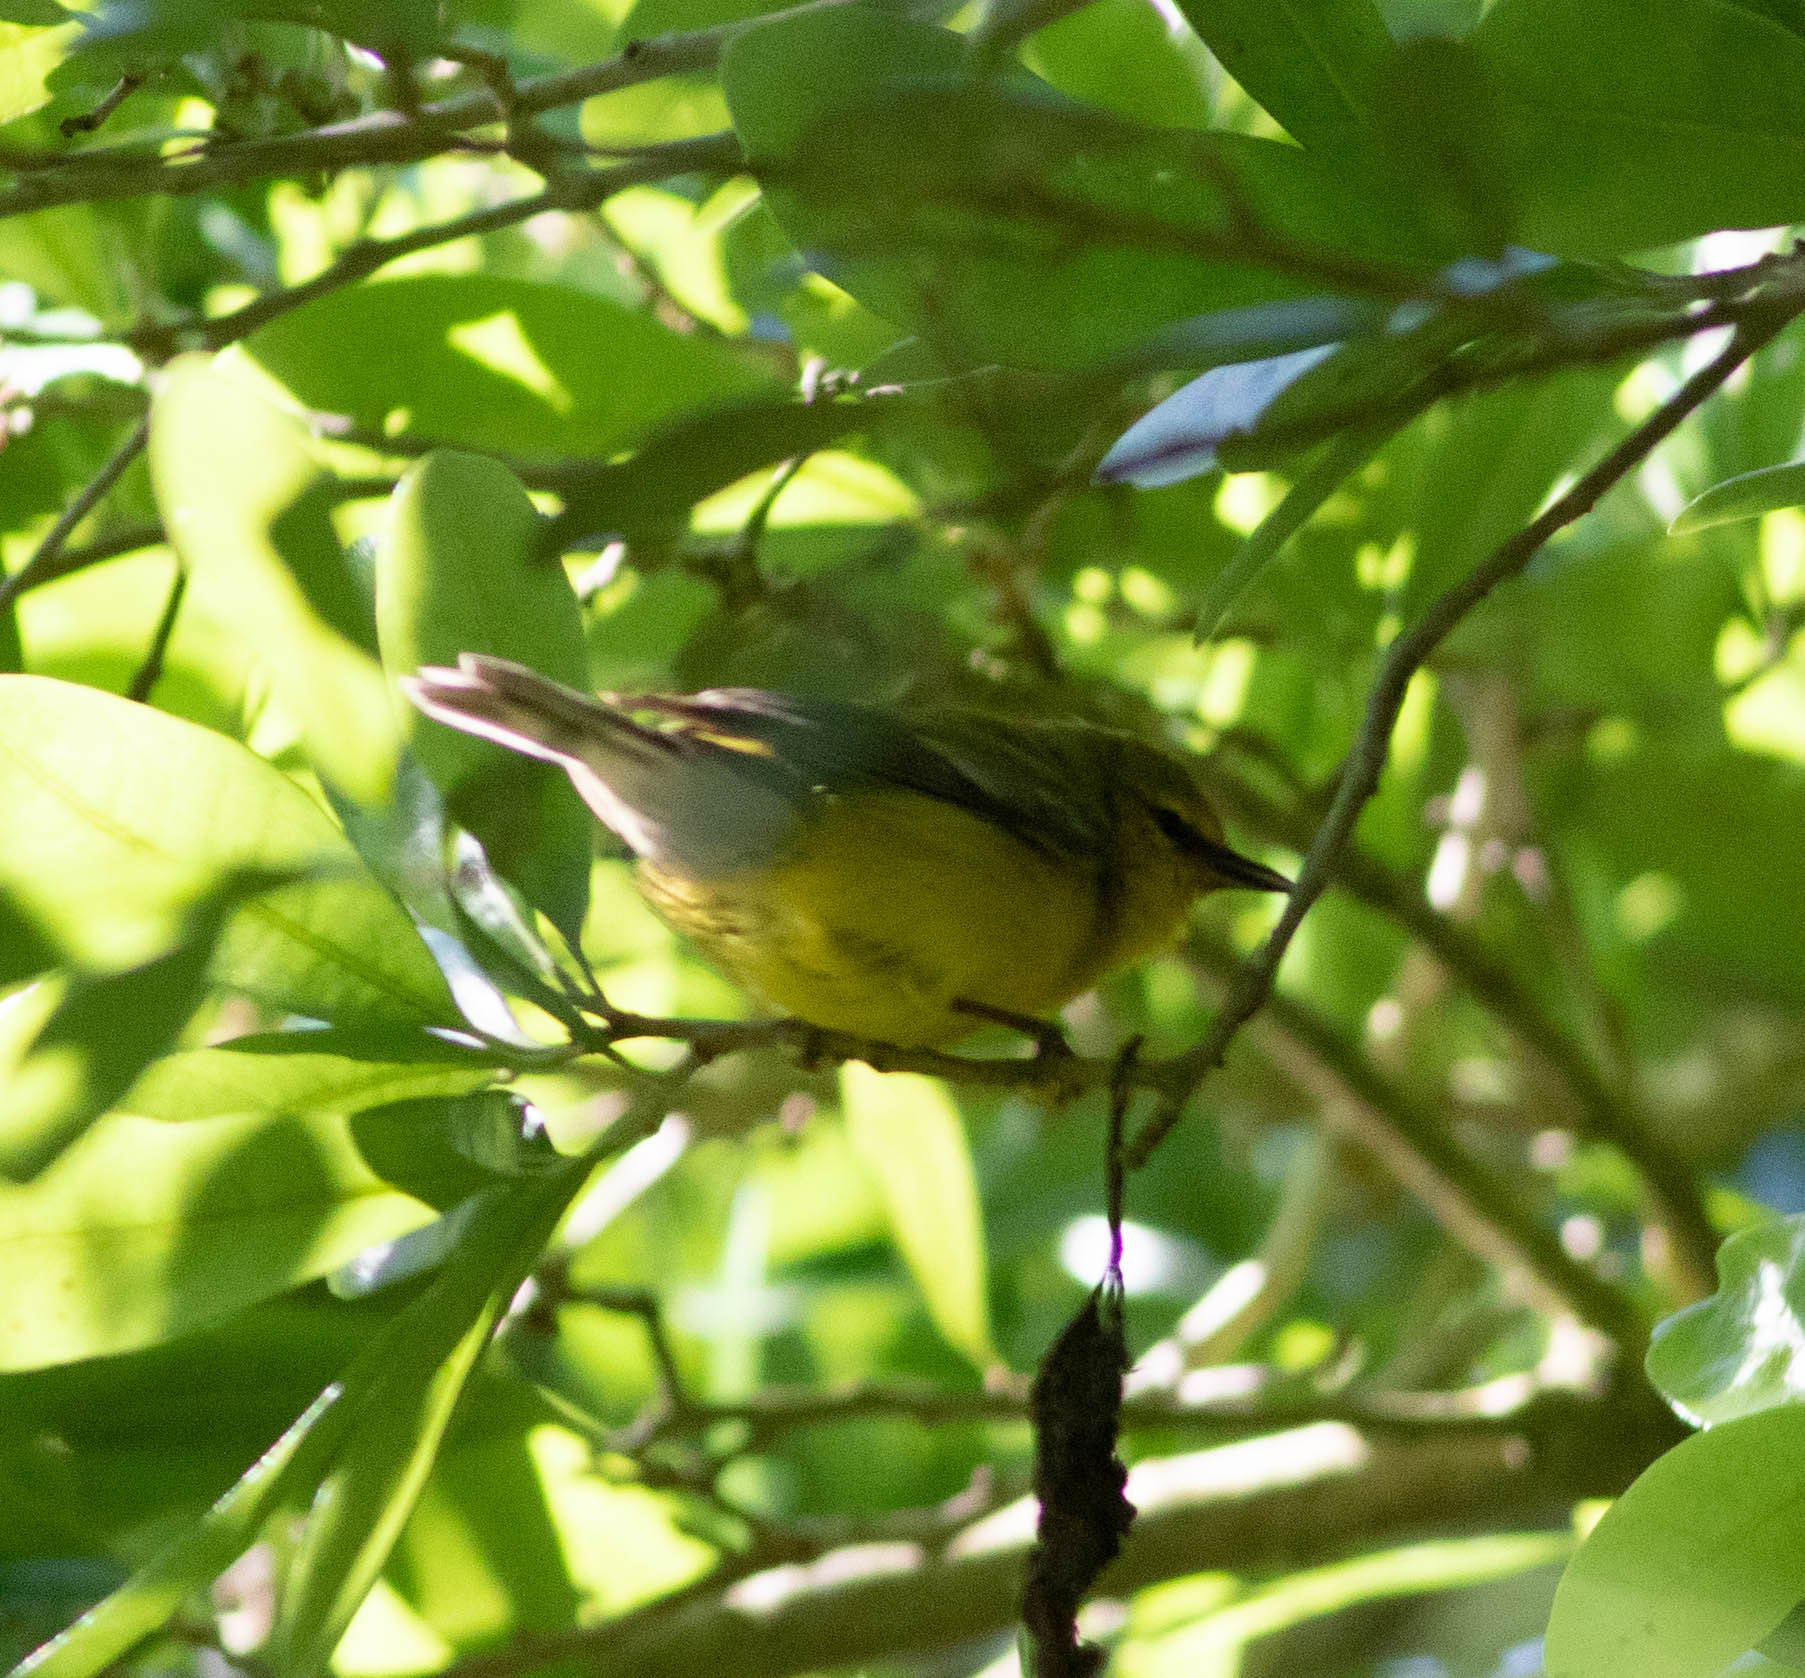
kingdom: Animalia
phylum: Chordata
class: Aves
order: Passeriformes
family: Parulidae
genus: Vermivora
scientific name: Vermivora cyanoptera
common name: Blue-winged warbler
